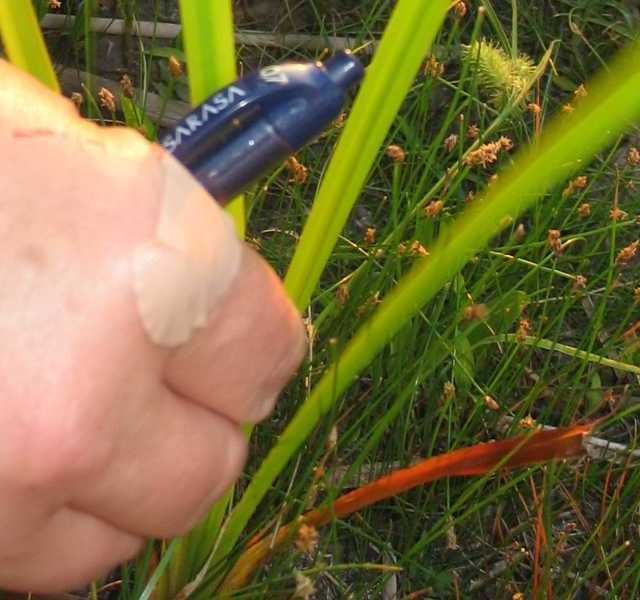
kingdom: Plantae
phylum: Tracheophyta
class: Liliopsida
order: Poales
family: Typhaceae
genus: Sparganium
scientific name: Sparganium eurycarpum
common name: Broad-fruited burreed
